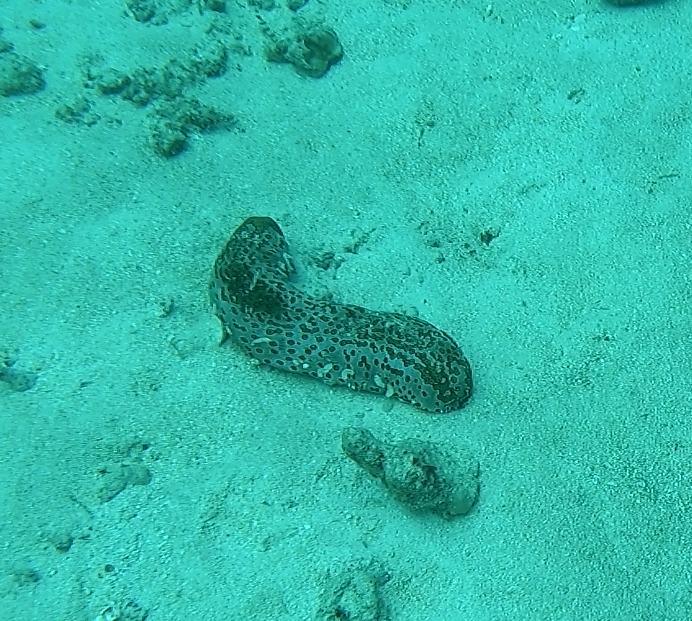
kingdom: Animalia
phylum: Echinodermata
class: Holothuroidea
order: Holothuriida
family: Holothuriidae
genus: Bohadschia
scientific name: Bohadschia argus
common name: Leopardfish
